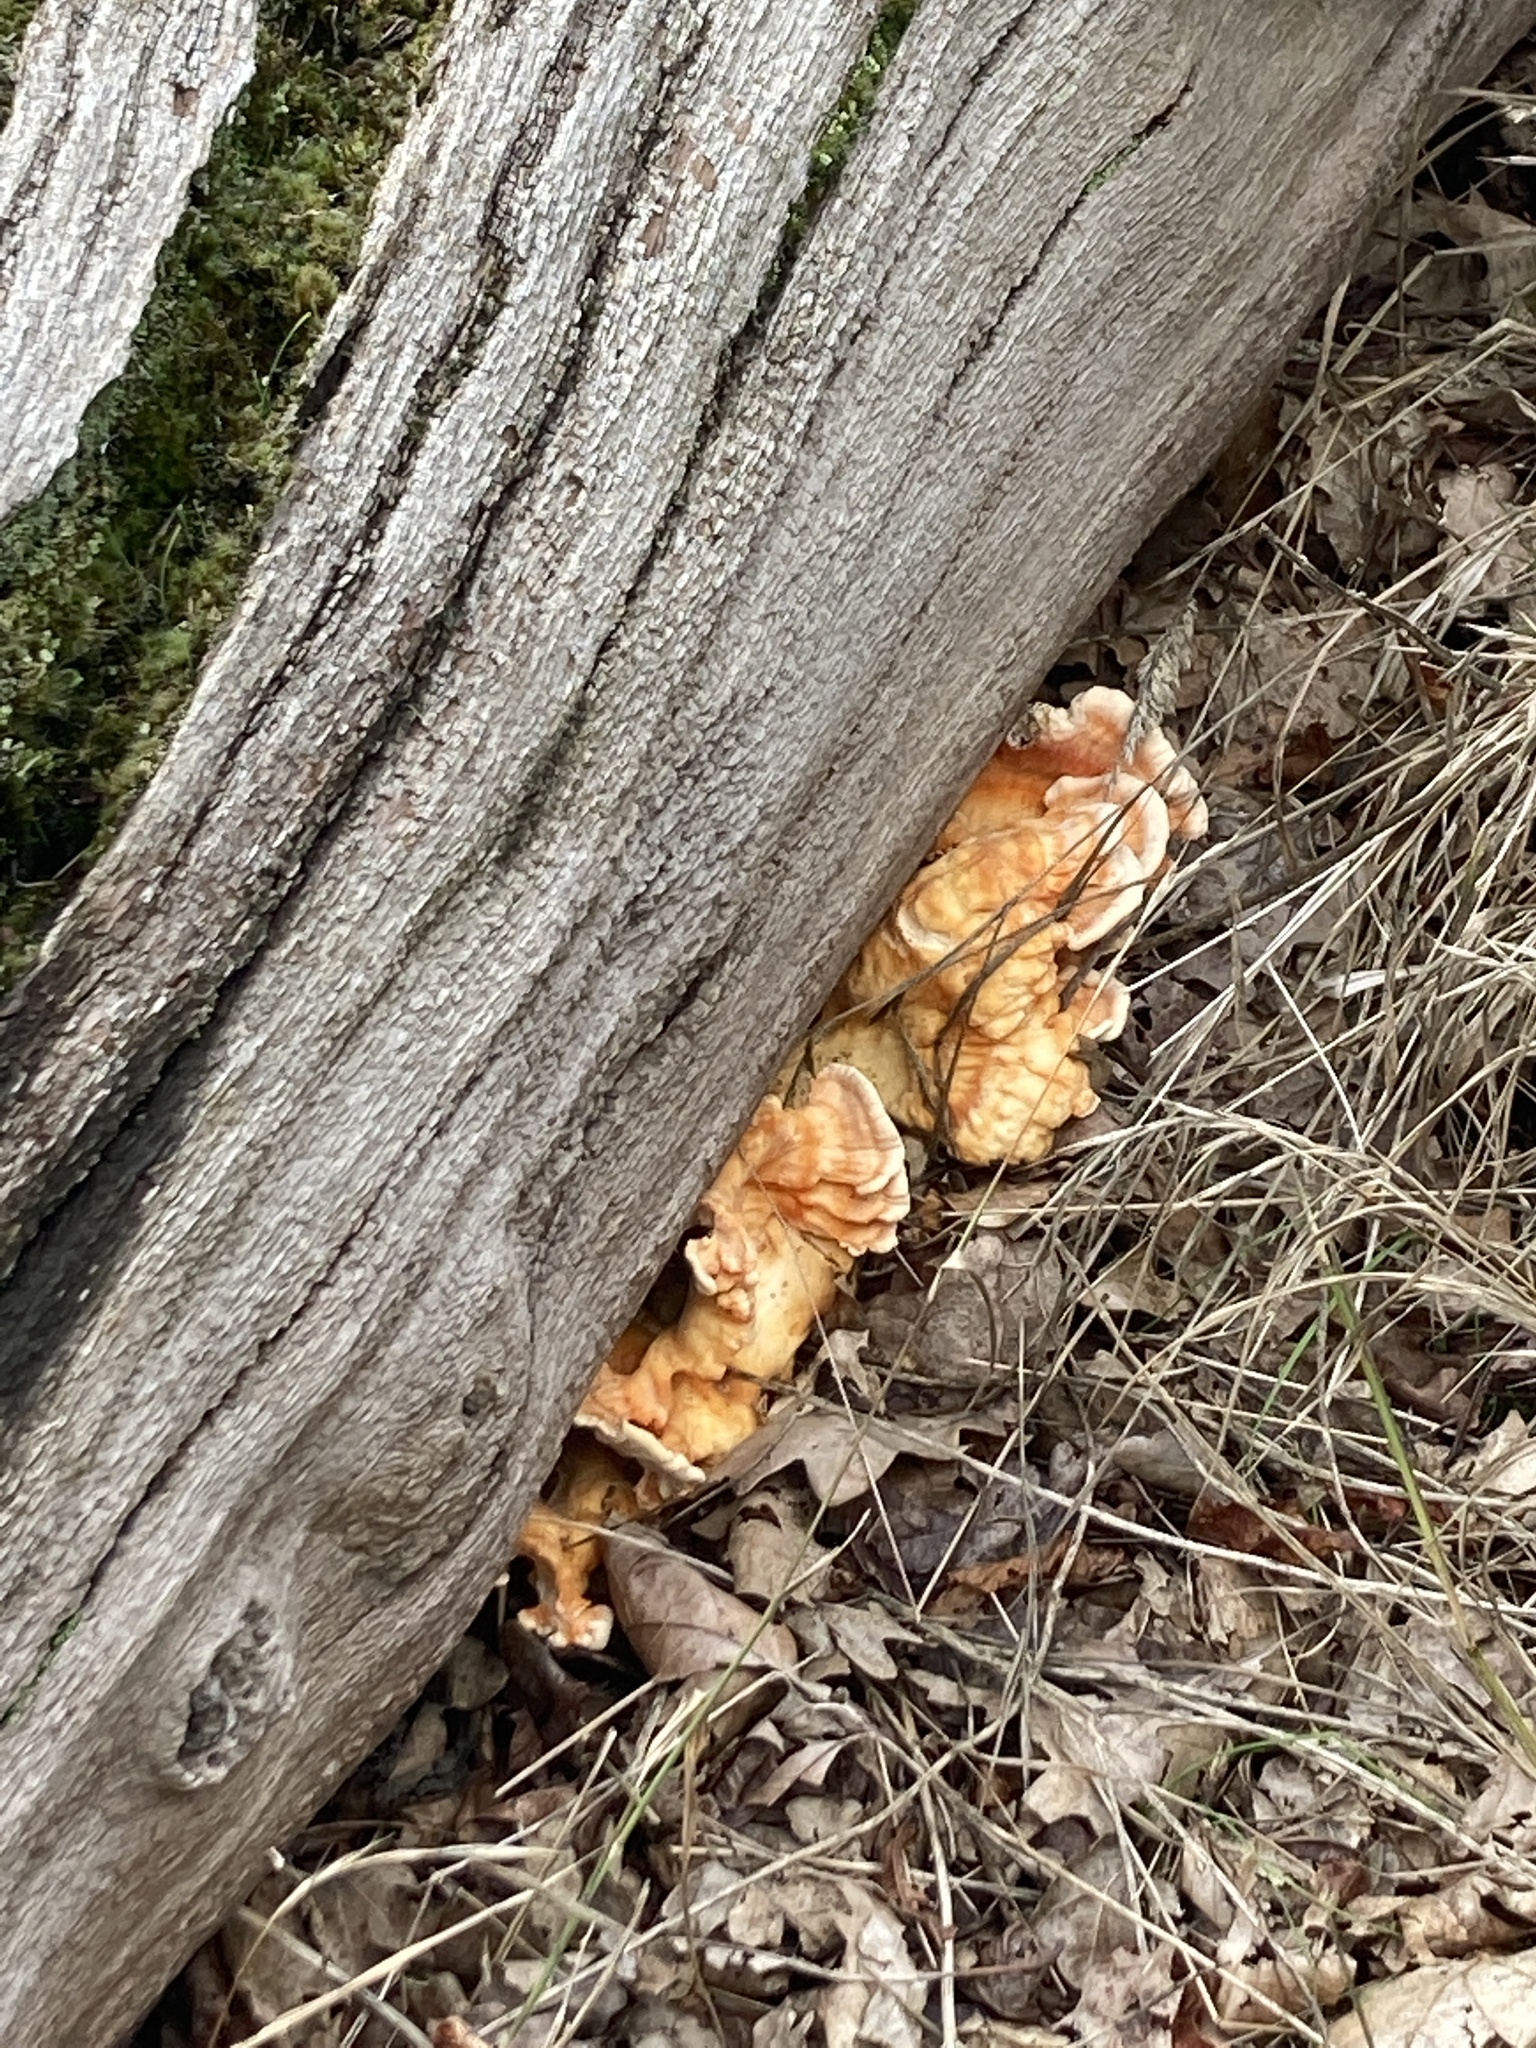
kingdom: Fungi
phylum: Basidiomycota
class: Agaricomycetes
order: Polyporales
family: Laetiporaceae
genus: Laetiporus
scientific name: Laetiporus sulphureus
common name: Chicken of the woods
